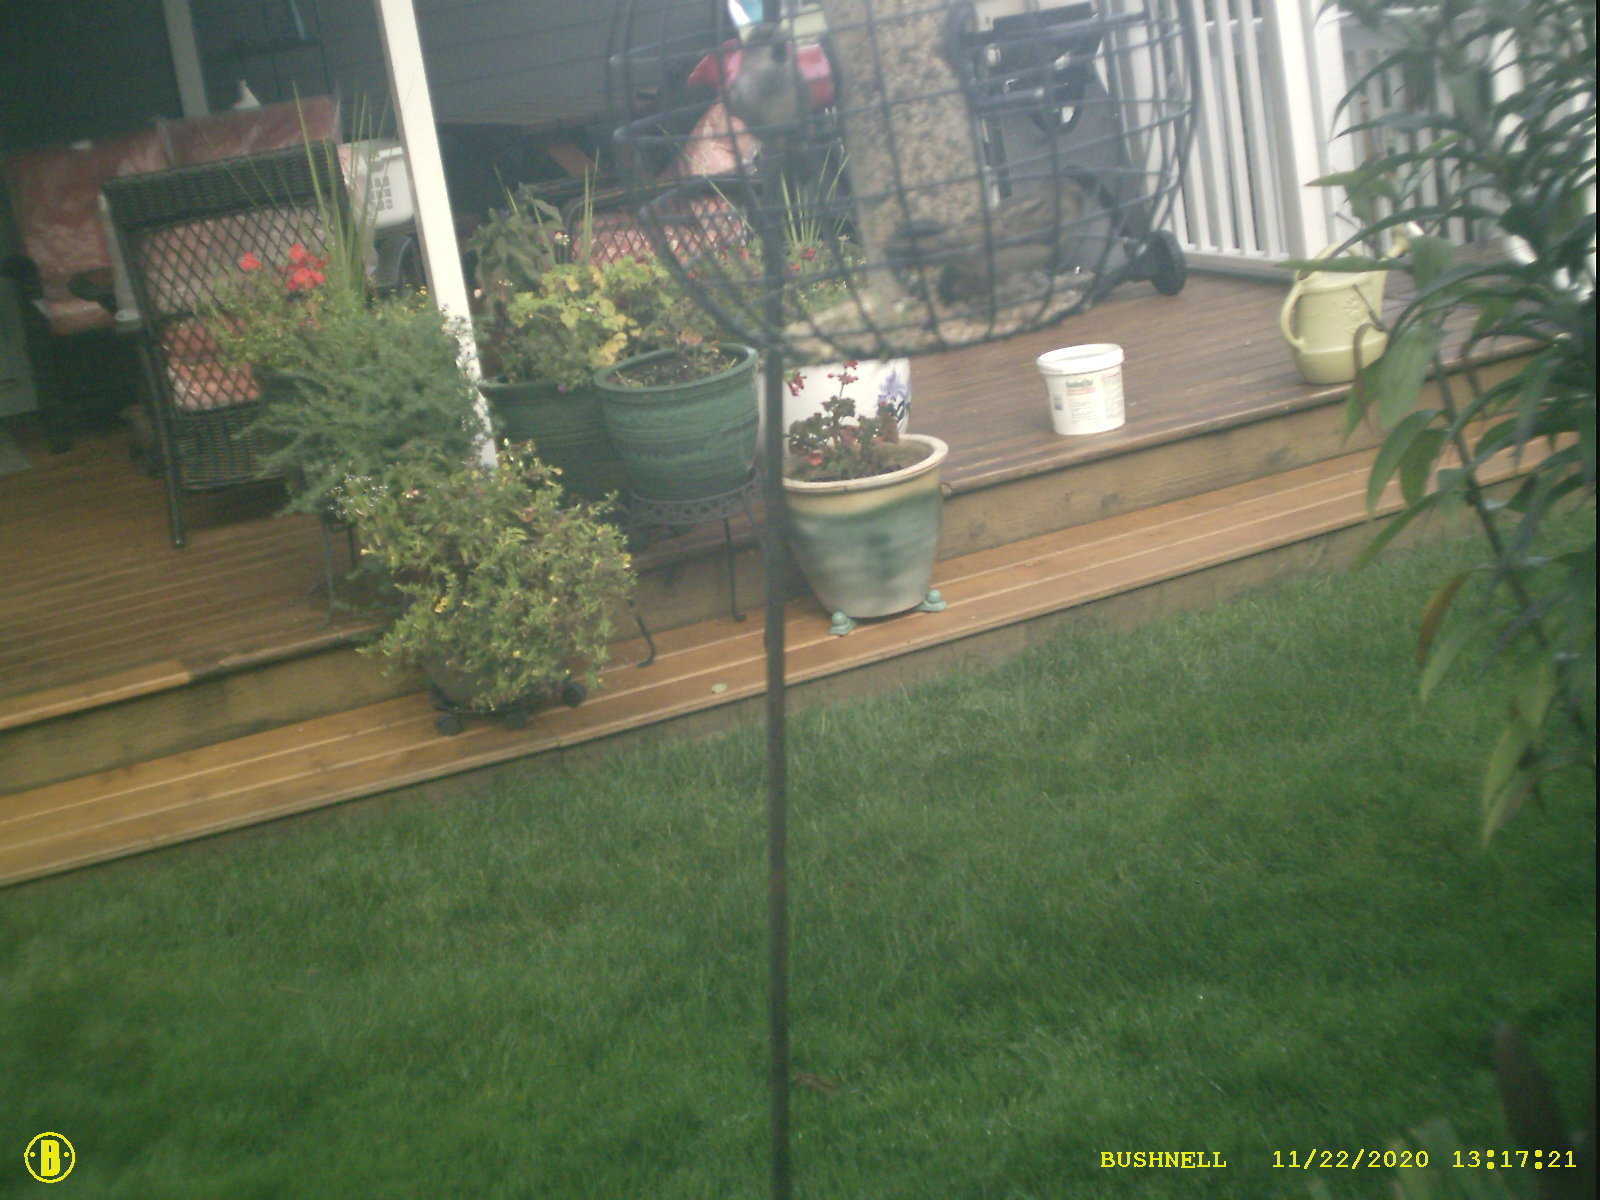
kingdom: Animalia
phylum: Chordata
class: Aves
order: Passeriformes
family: Passeridae
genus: Passer
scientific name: Passer domesticus
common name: House sparrow
